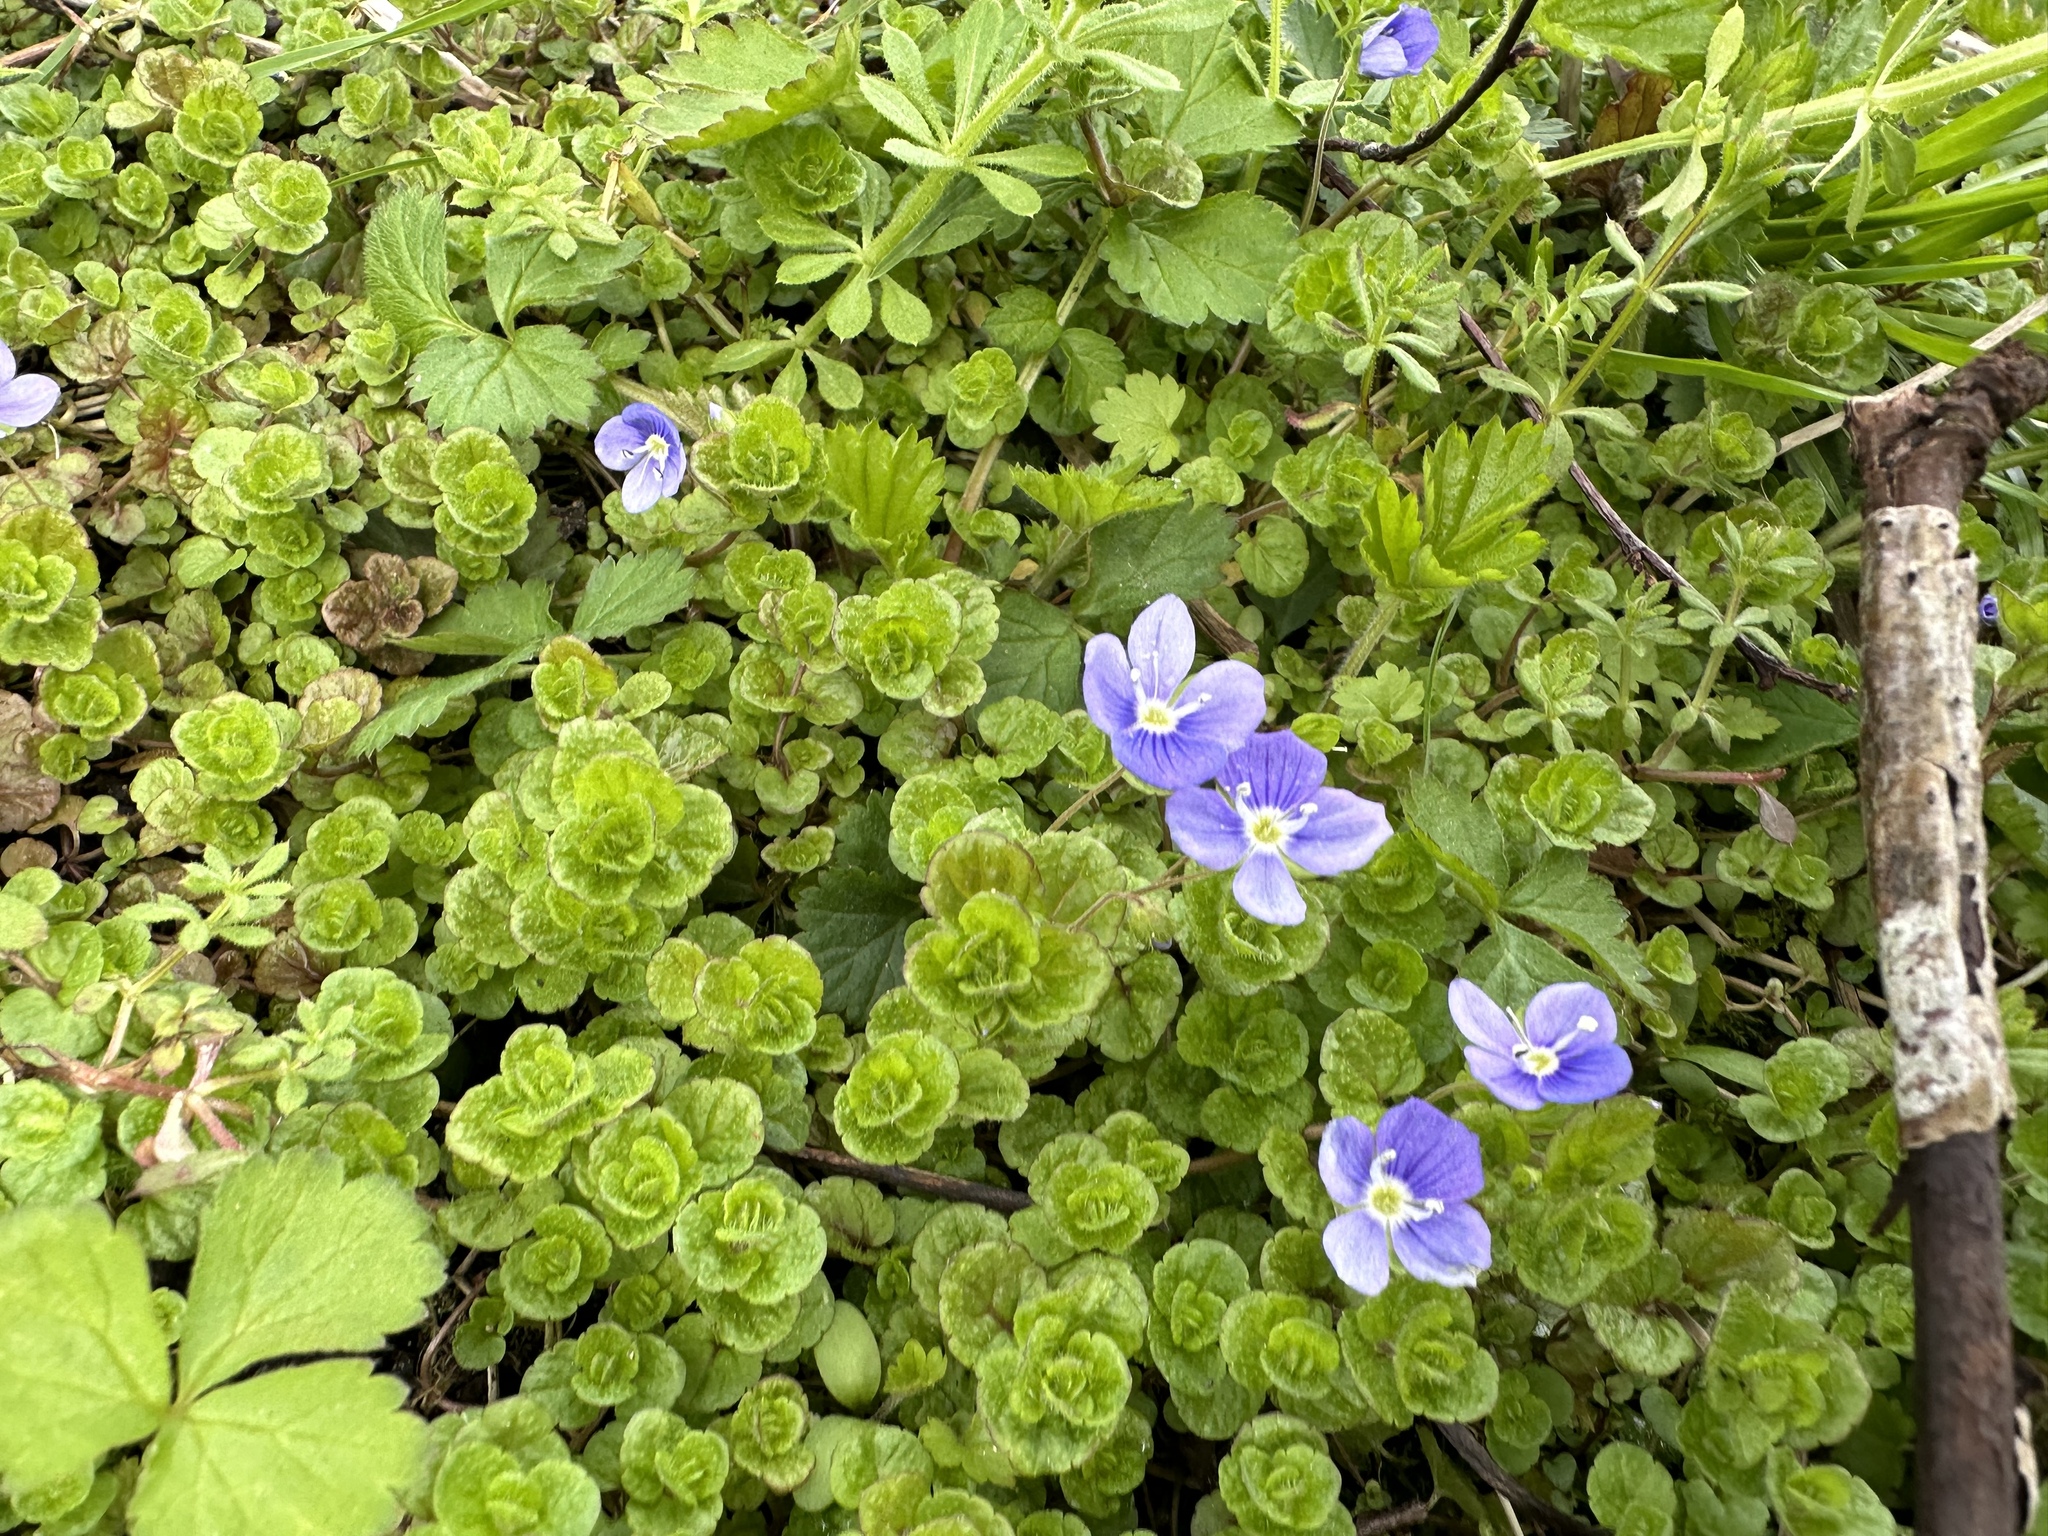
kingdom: Plantae
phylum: Tracheophyta
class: Magnoliopsida
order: Lamiales
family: Plantaginaceae
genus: Veronica
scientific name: Veronica filiformis
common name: Slender speedwell
